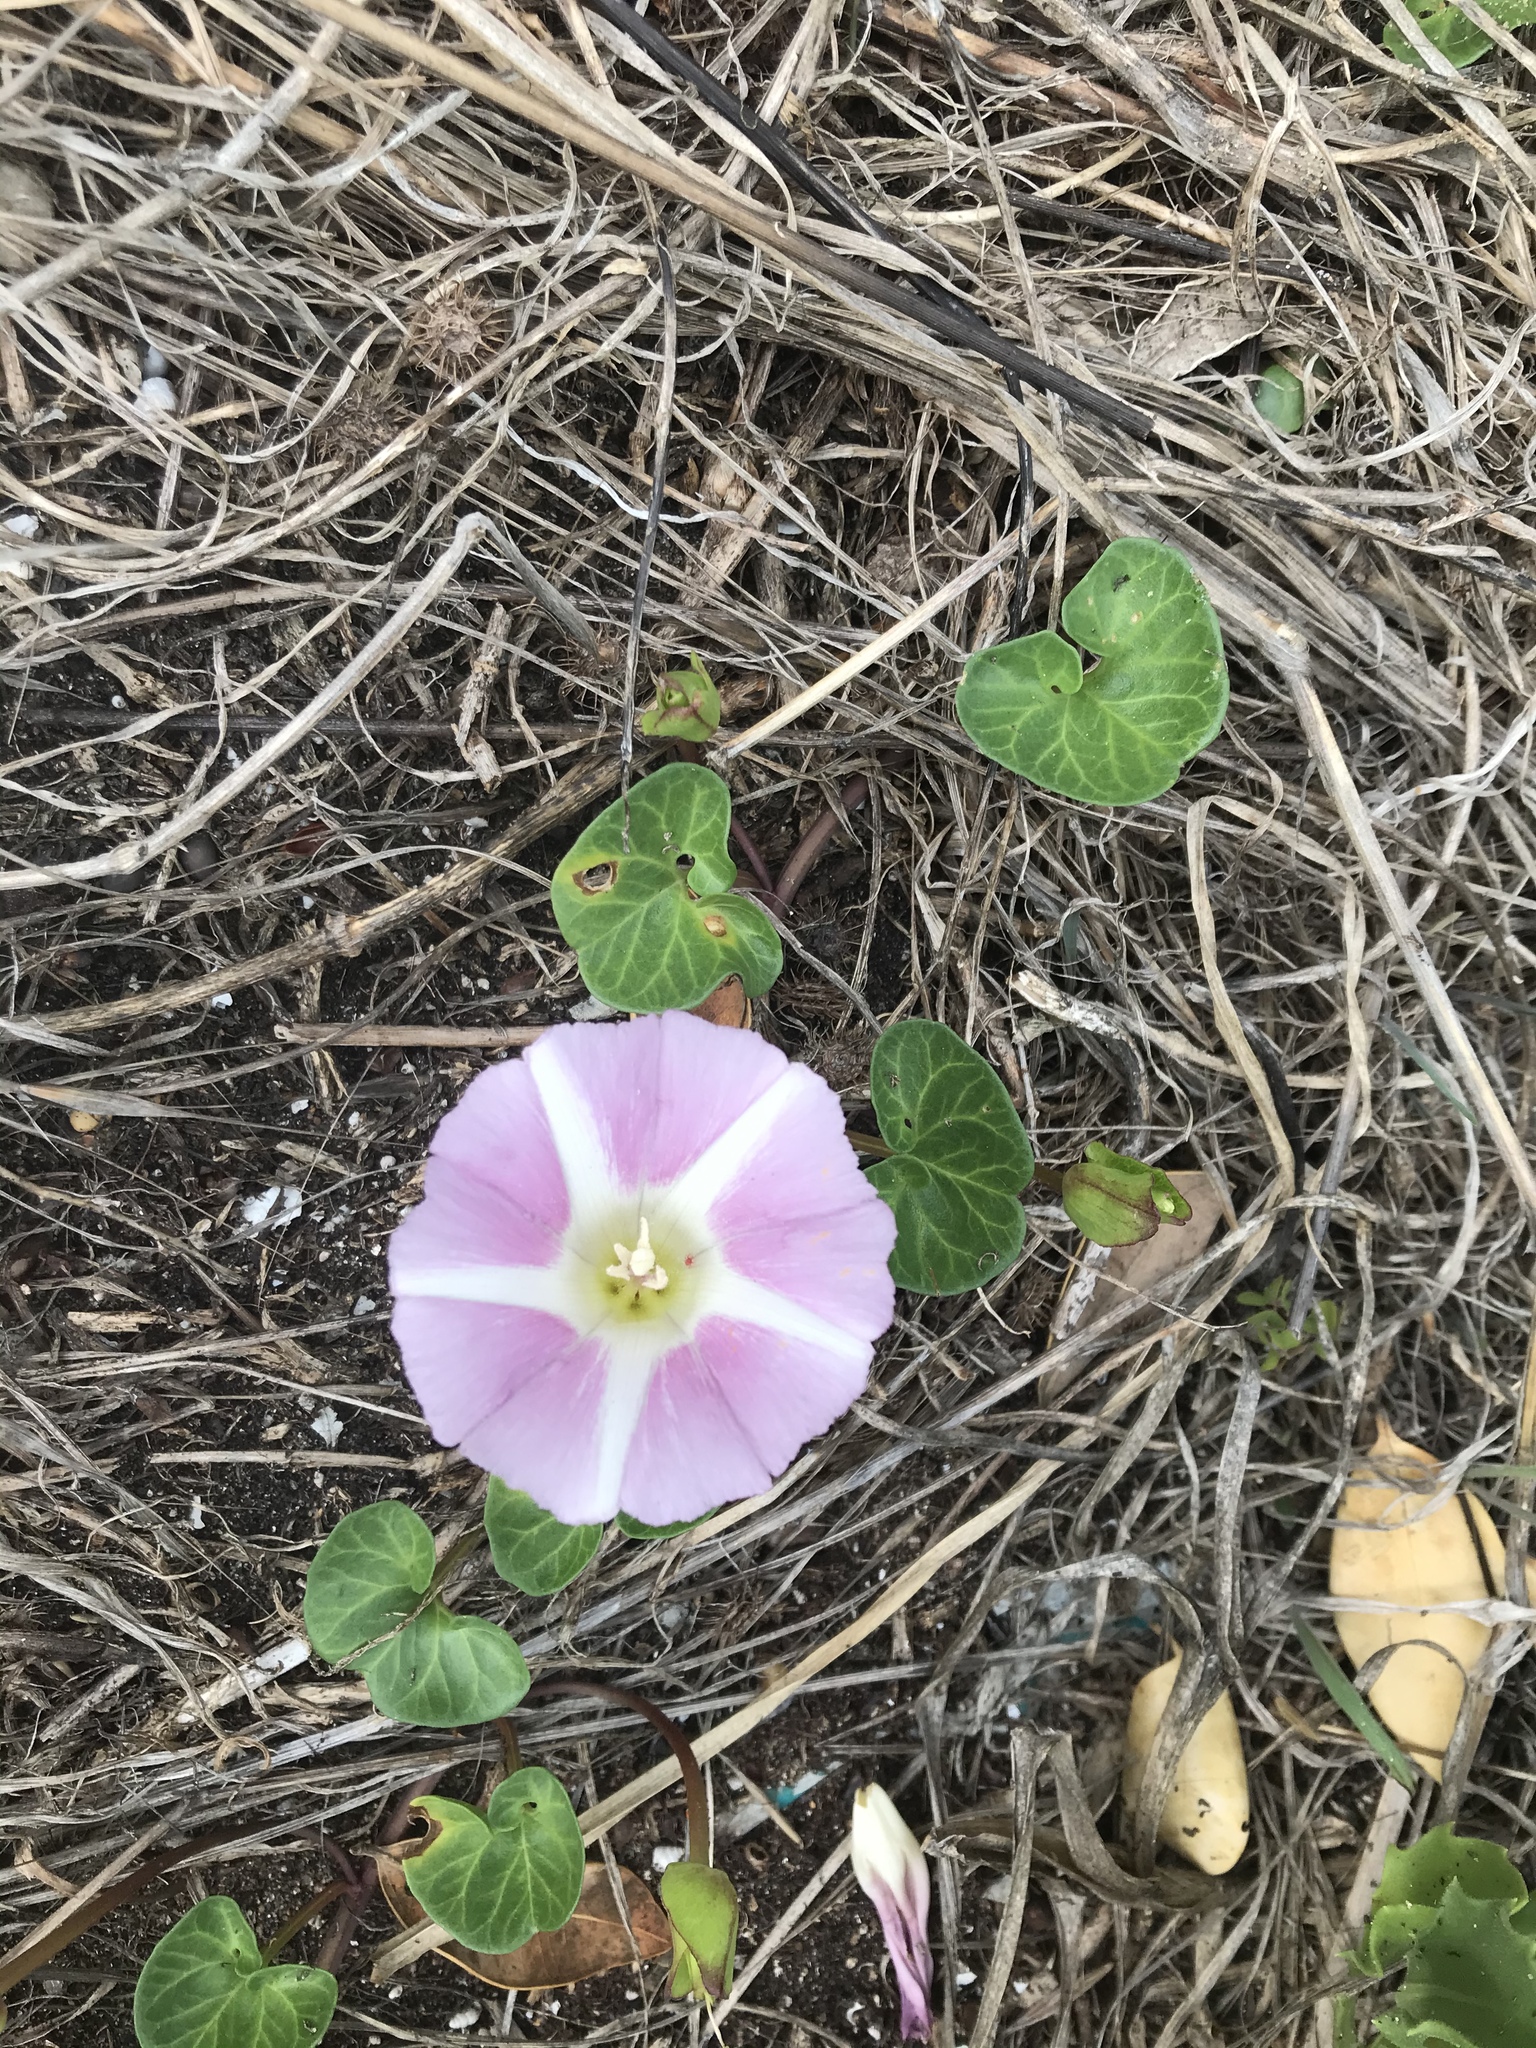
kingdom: Plantae
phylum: Tracheophyta
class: Magnoliopsida
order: Solanales
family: Convolvulaceae
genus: Calystegia
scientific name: Calystegia soldanella
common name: Sea bindweed
